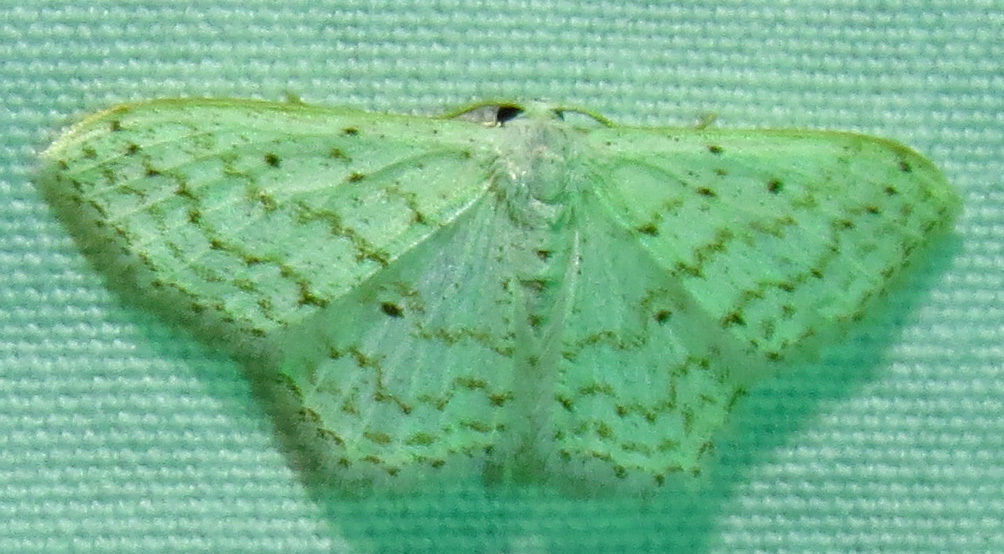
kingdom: Animalia
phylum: Arthropoda
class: Insecta
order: Lepidoptera
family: Geometridae
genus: Idaea
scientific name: Idaea tacturata
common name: Dot-lined wave
